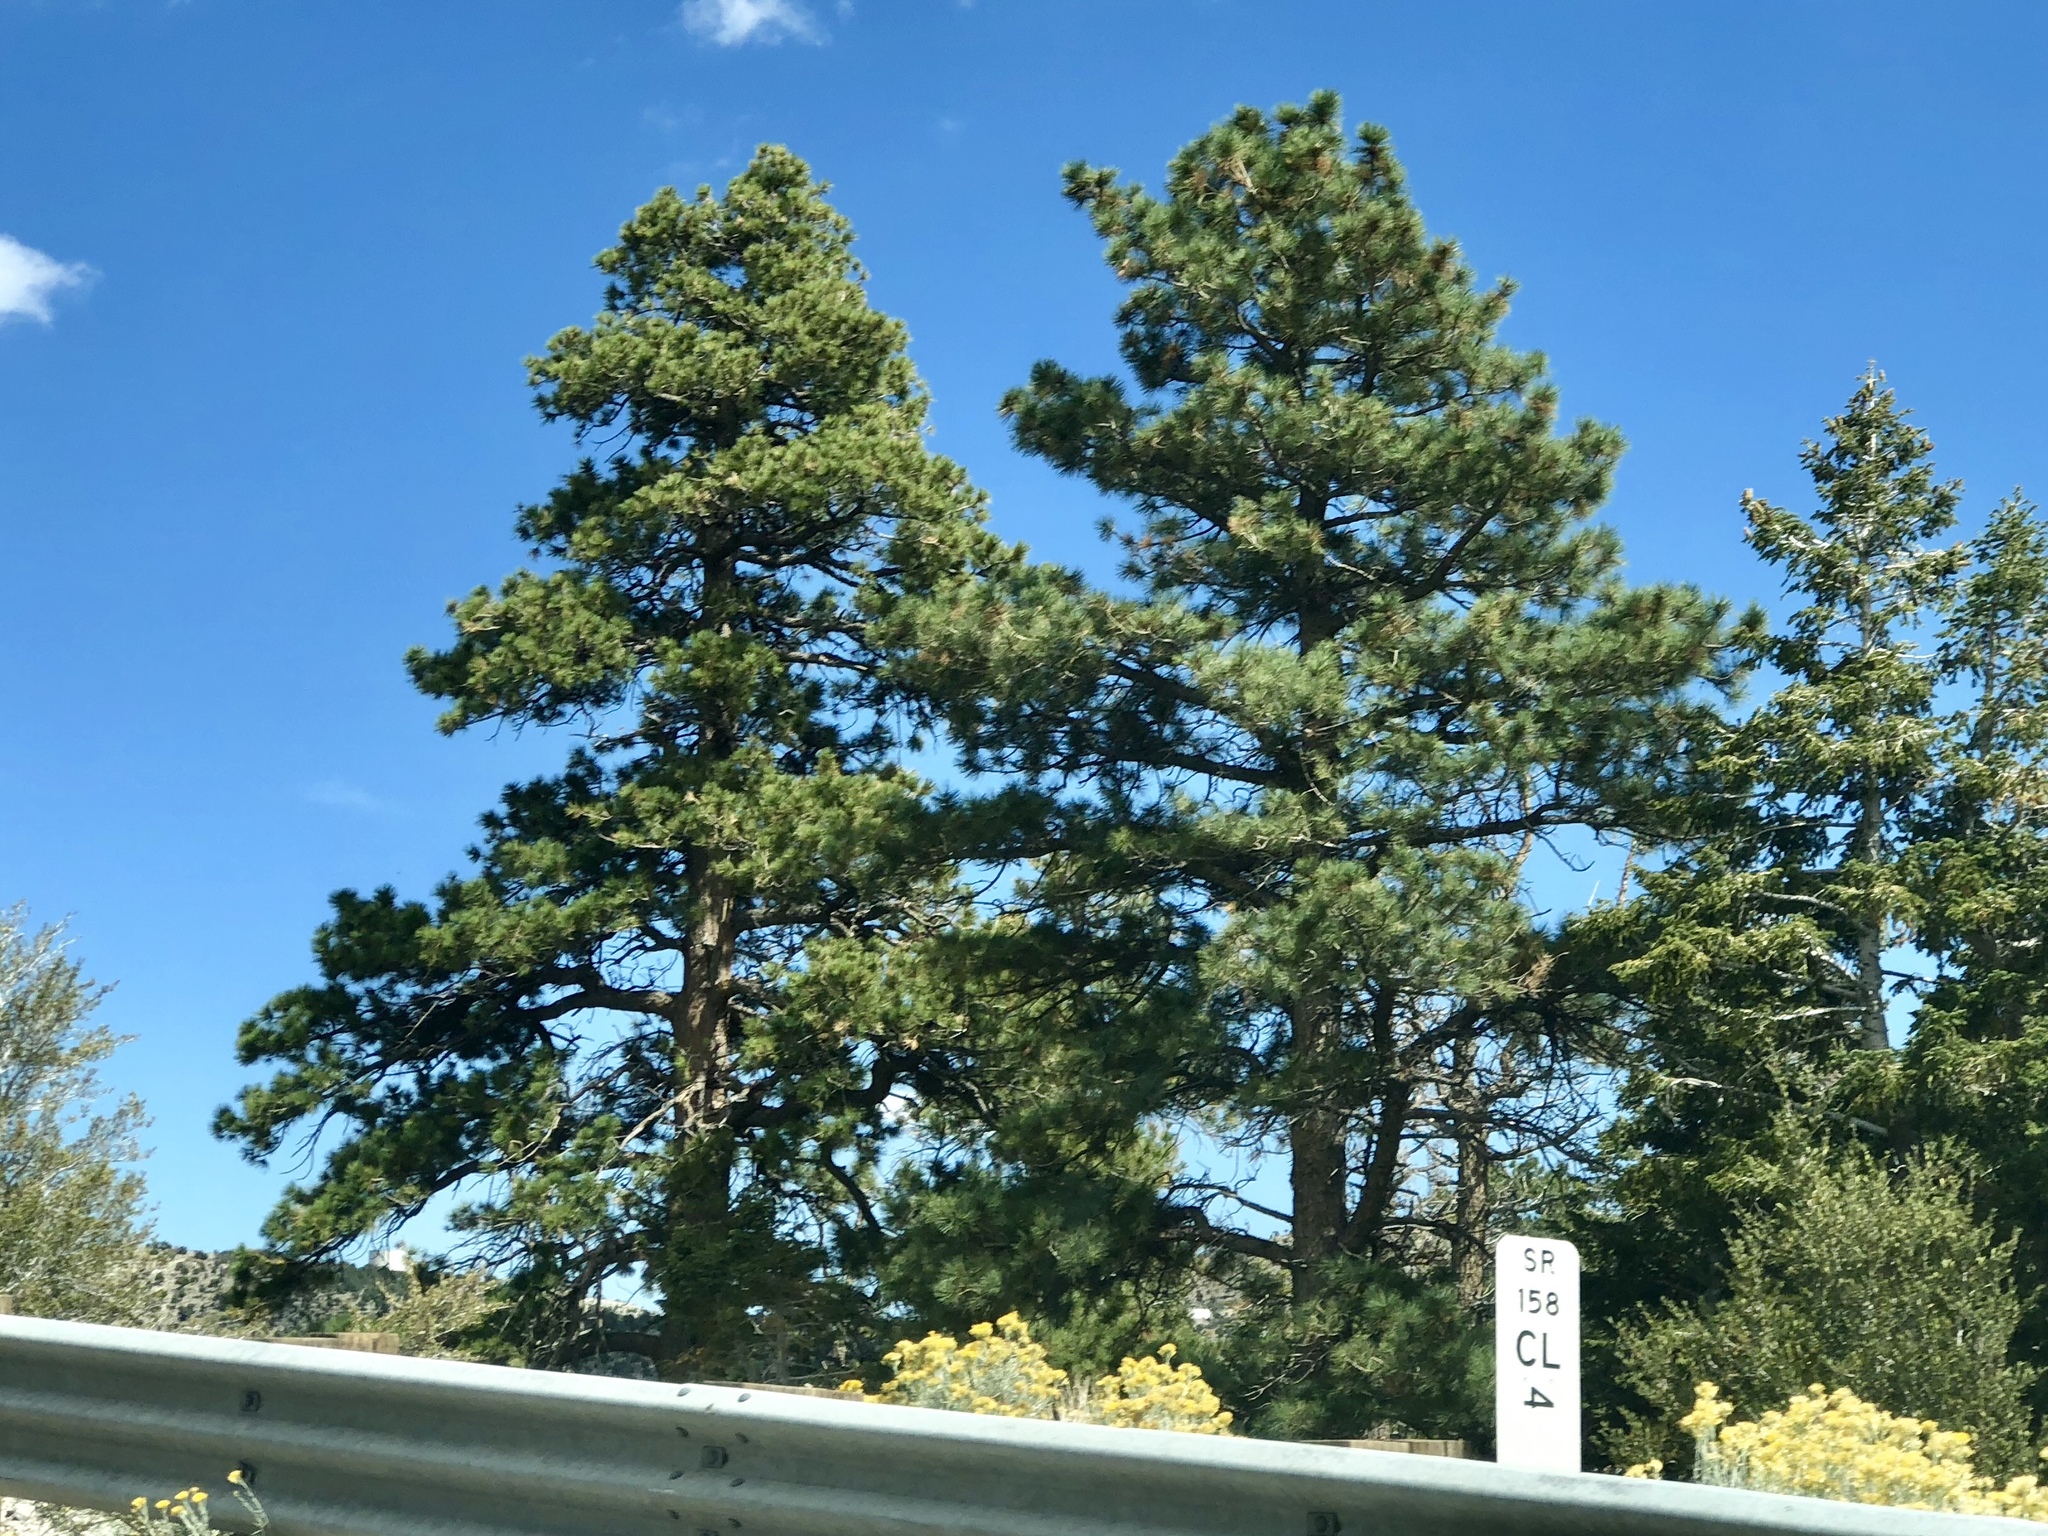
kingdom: Plantae
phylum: Tracheophyta
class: Pinopsida
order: Pinales
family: Pinaceae
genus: Pinus
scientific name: Pinus ponderosa
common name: Western yellow-pine
